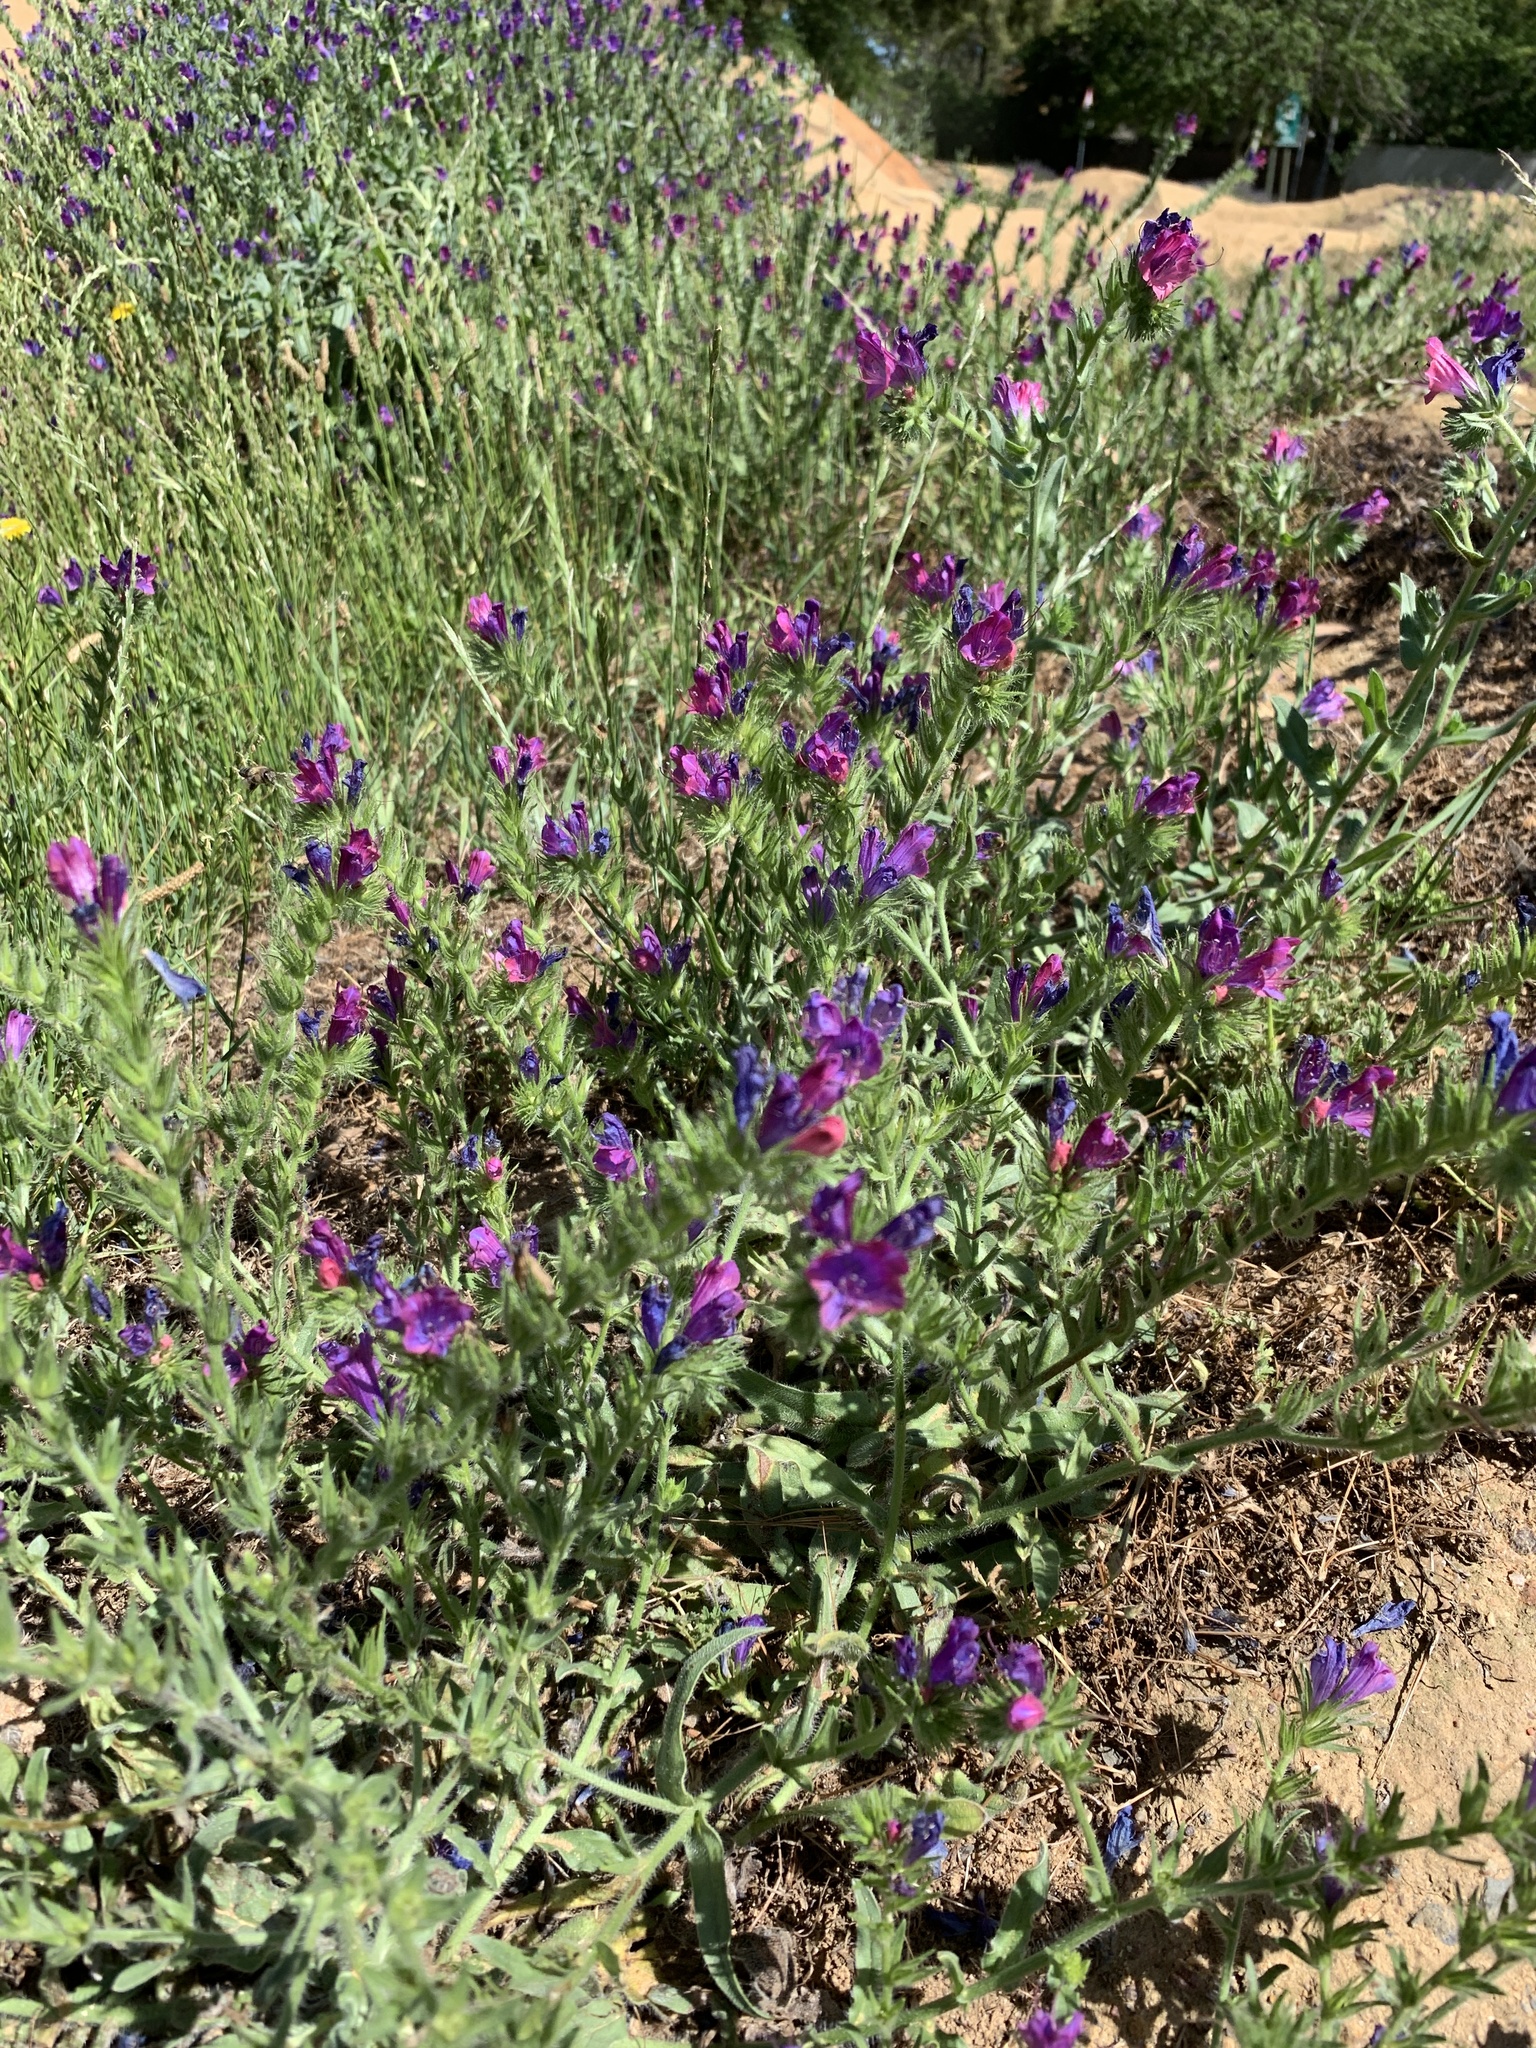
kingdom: Plantae
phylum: Tracheophyta
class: Magnoliopsida
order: Boraginales
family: Boraginaceae
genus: Echium
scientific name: Echium plantagineum
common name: Purple viper's-bugloss
